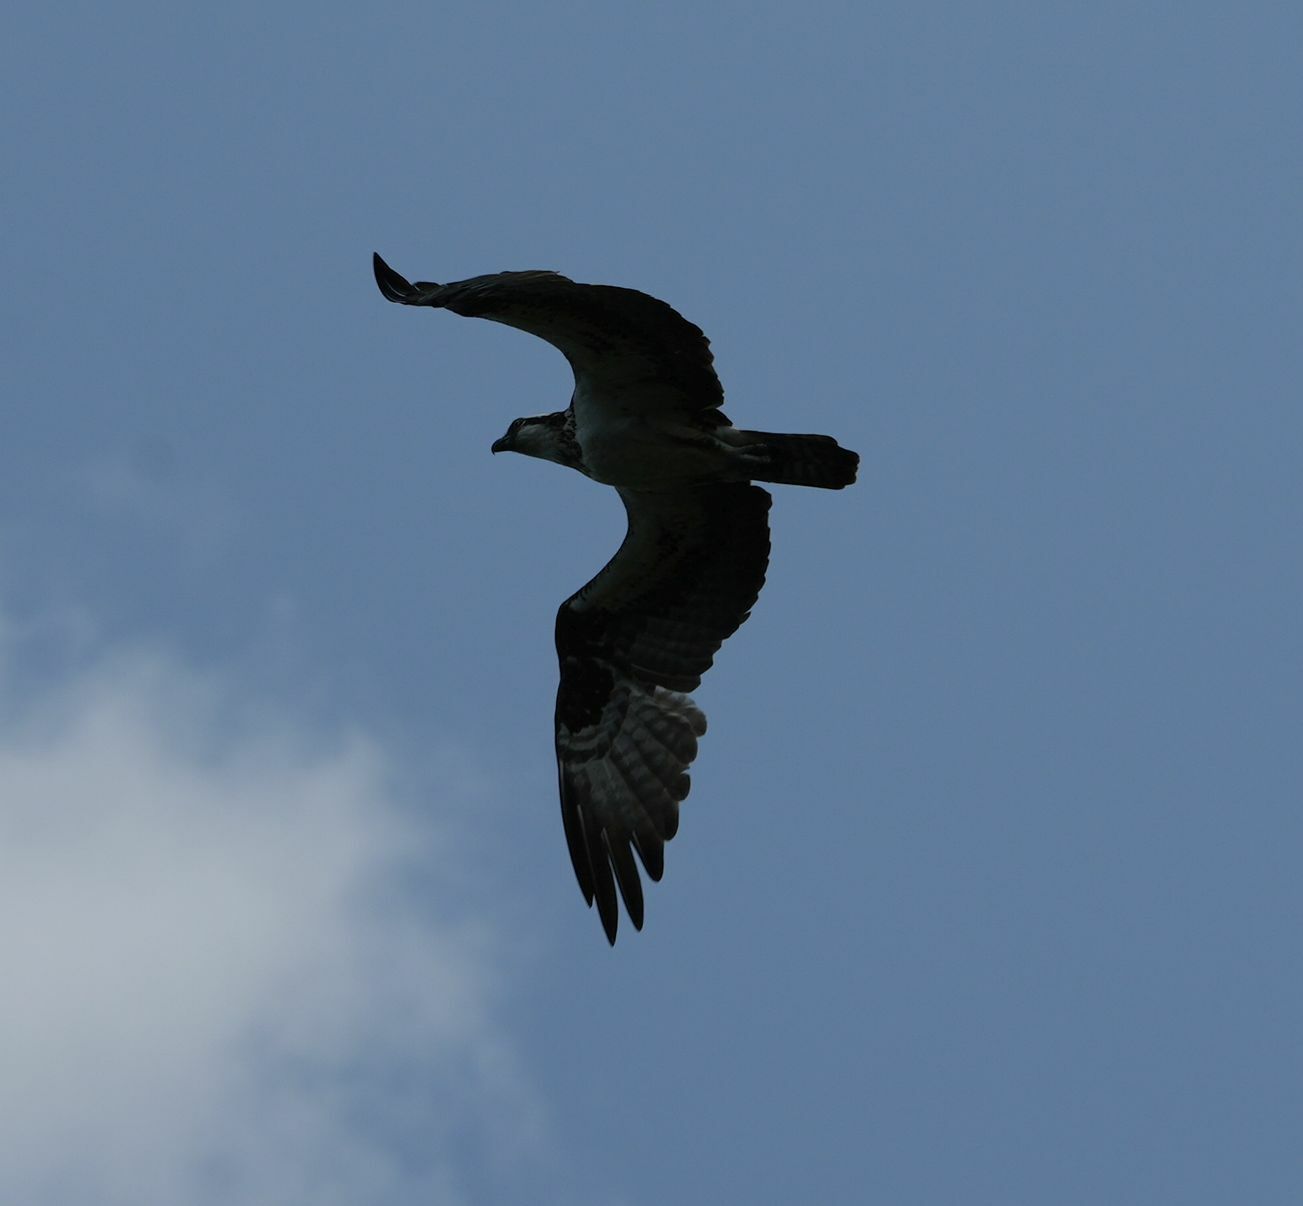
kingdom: Animalia
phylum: Chordata
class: Aves
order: Accipitriformes
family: Pandionidae
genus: Pandion
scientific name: Pandion haliaetus
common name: Osprey
